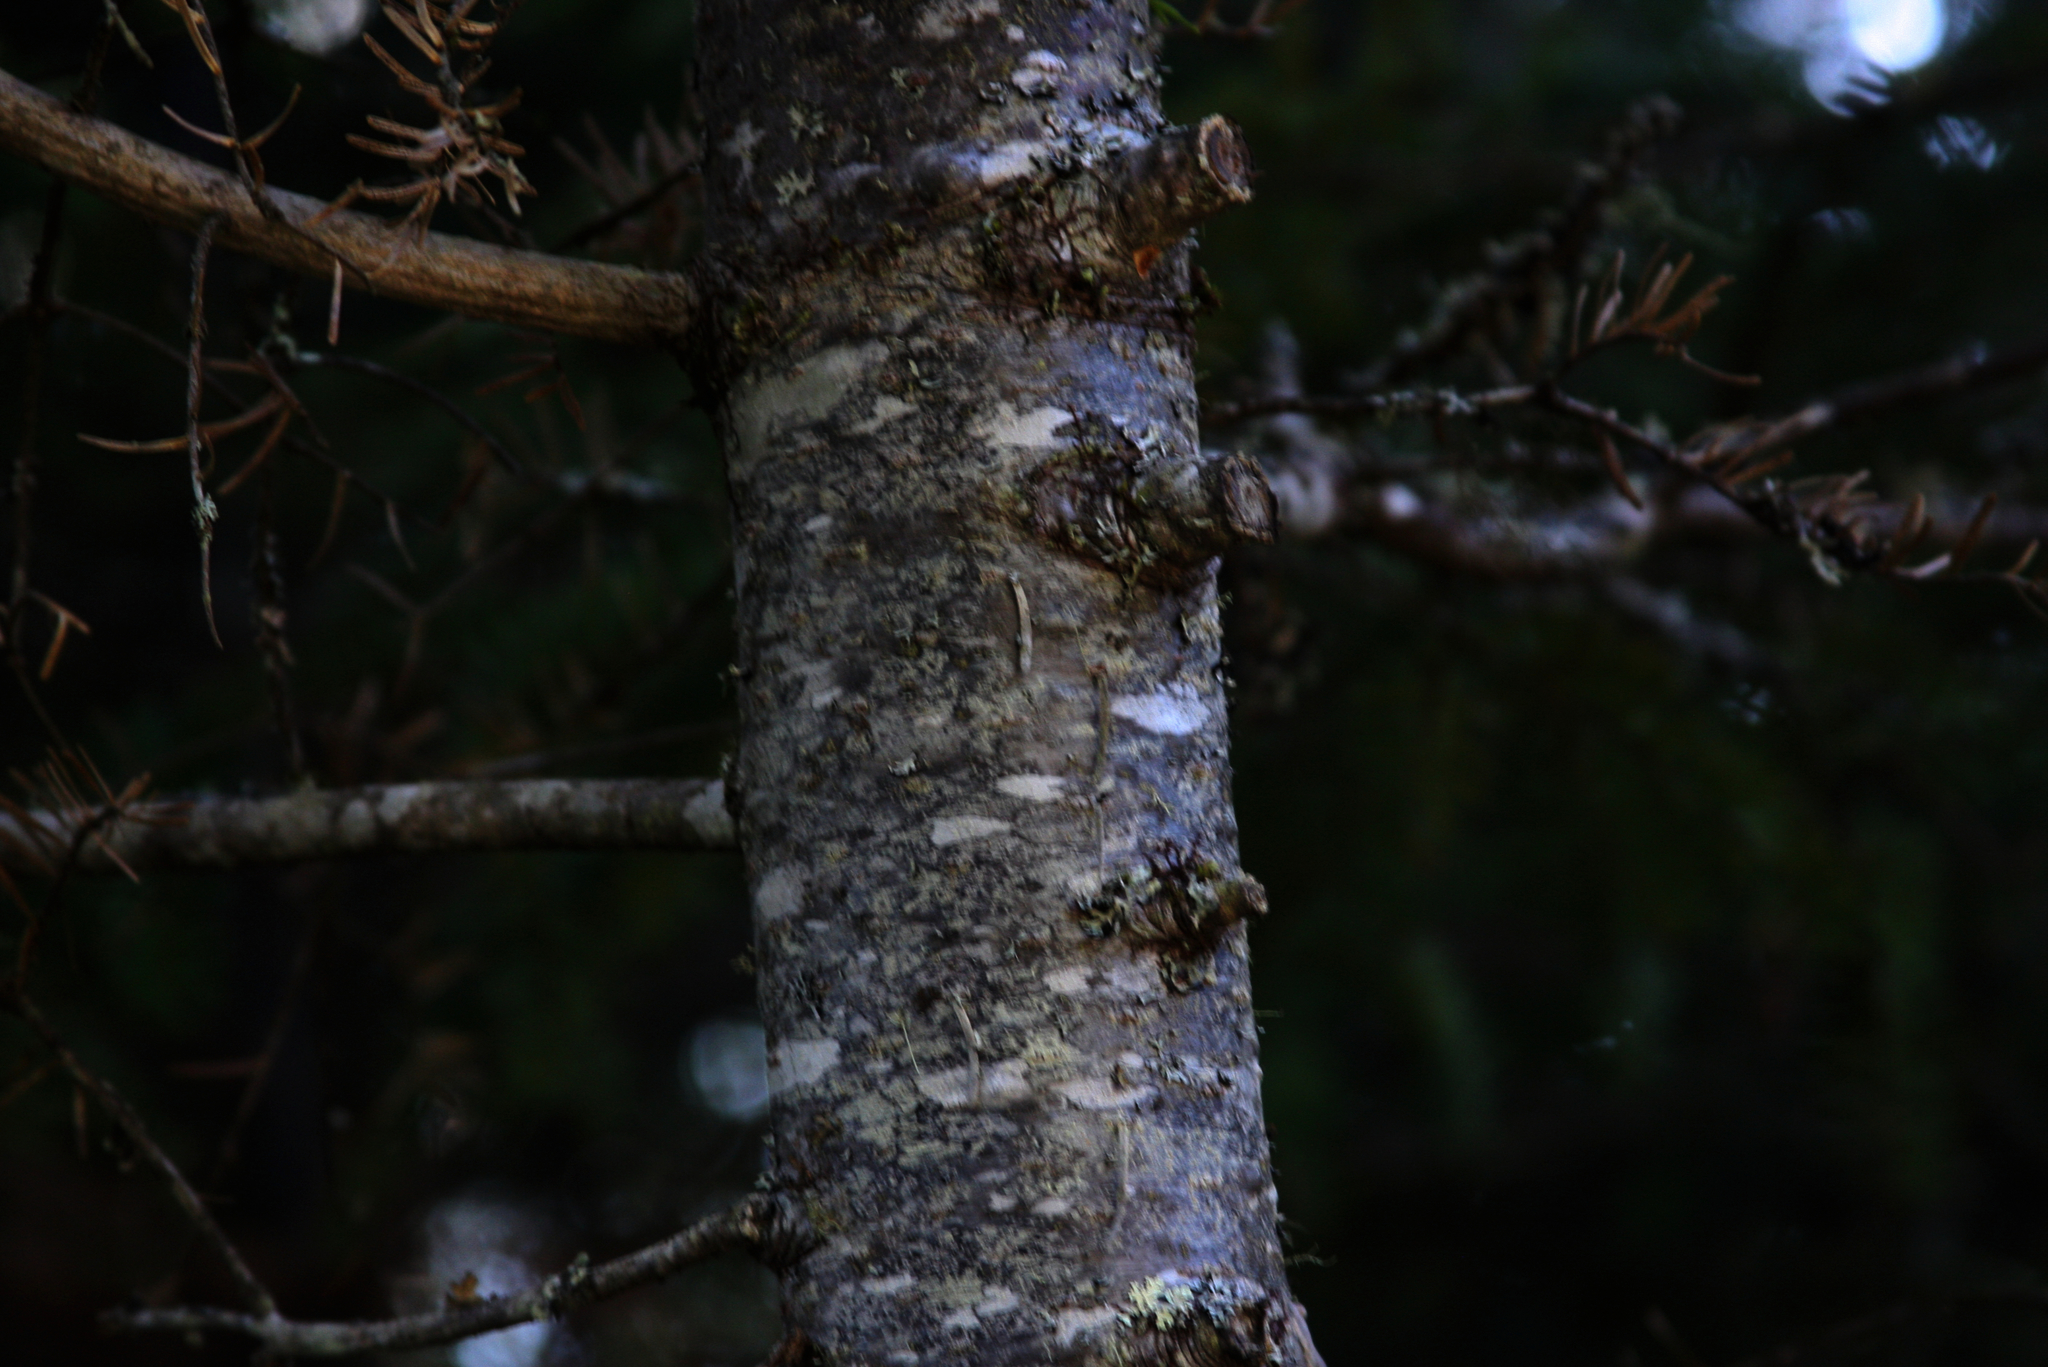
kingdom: Plantae
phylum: Tracheophyta
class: Pinopsida
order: Pinales
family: Pinaceae
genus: Abies
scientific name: Abies balsamea
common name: Balsam fir
